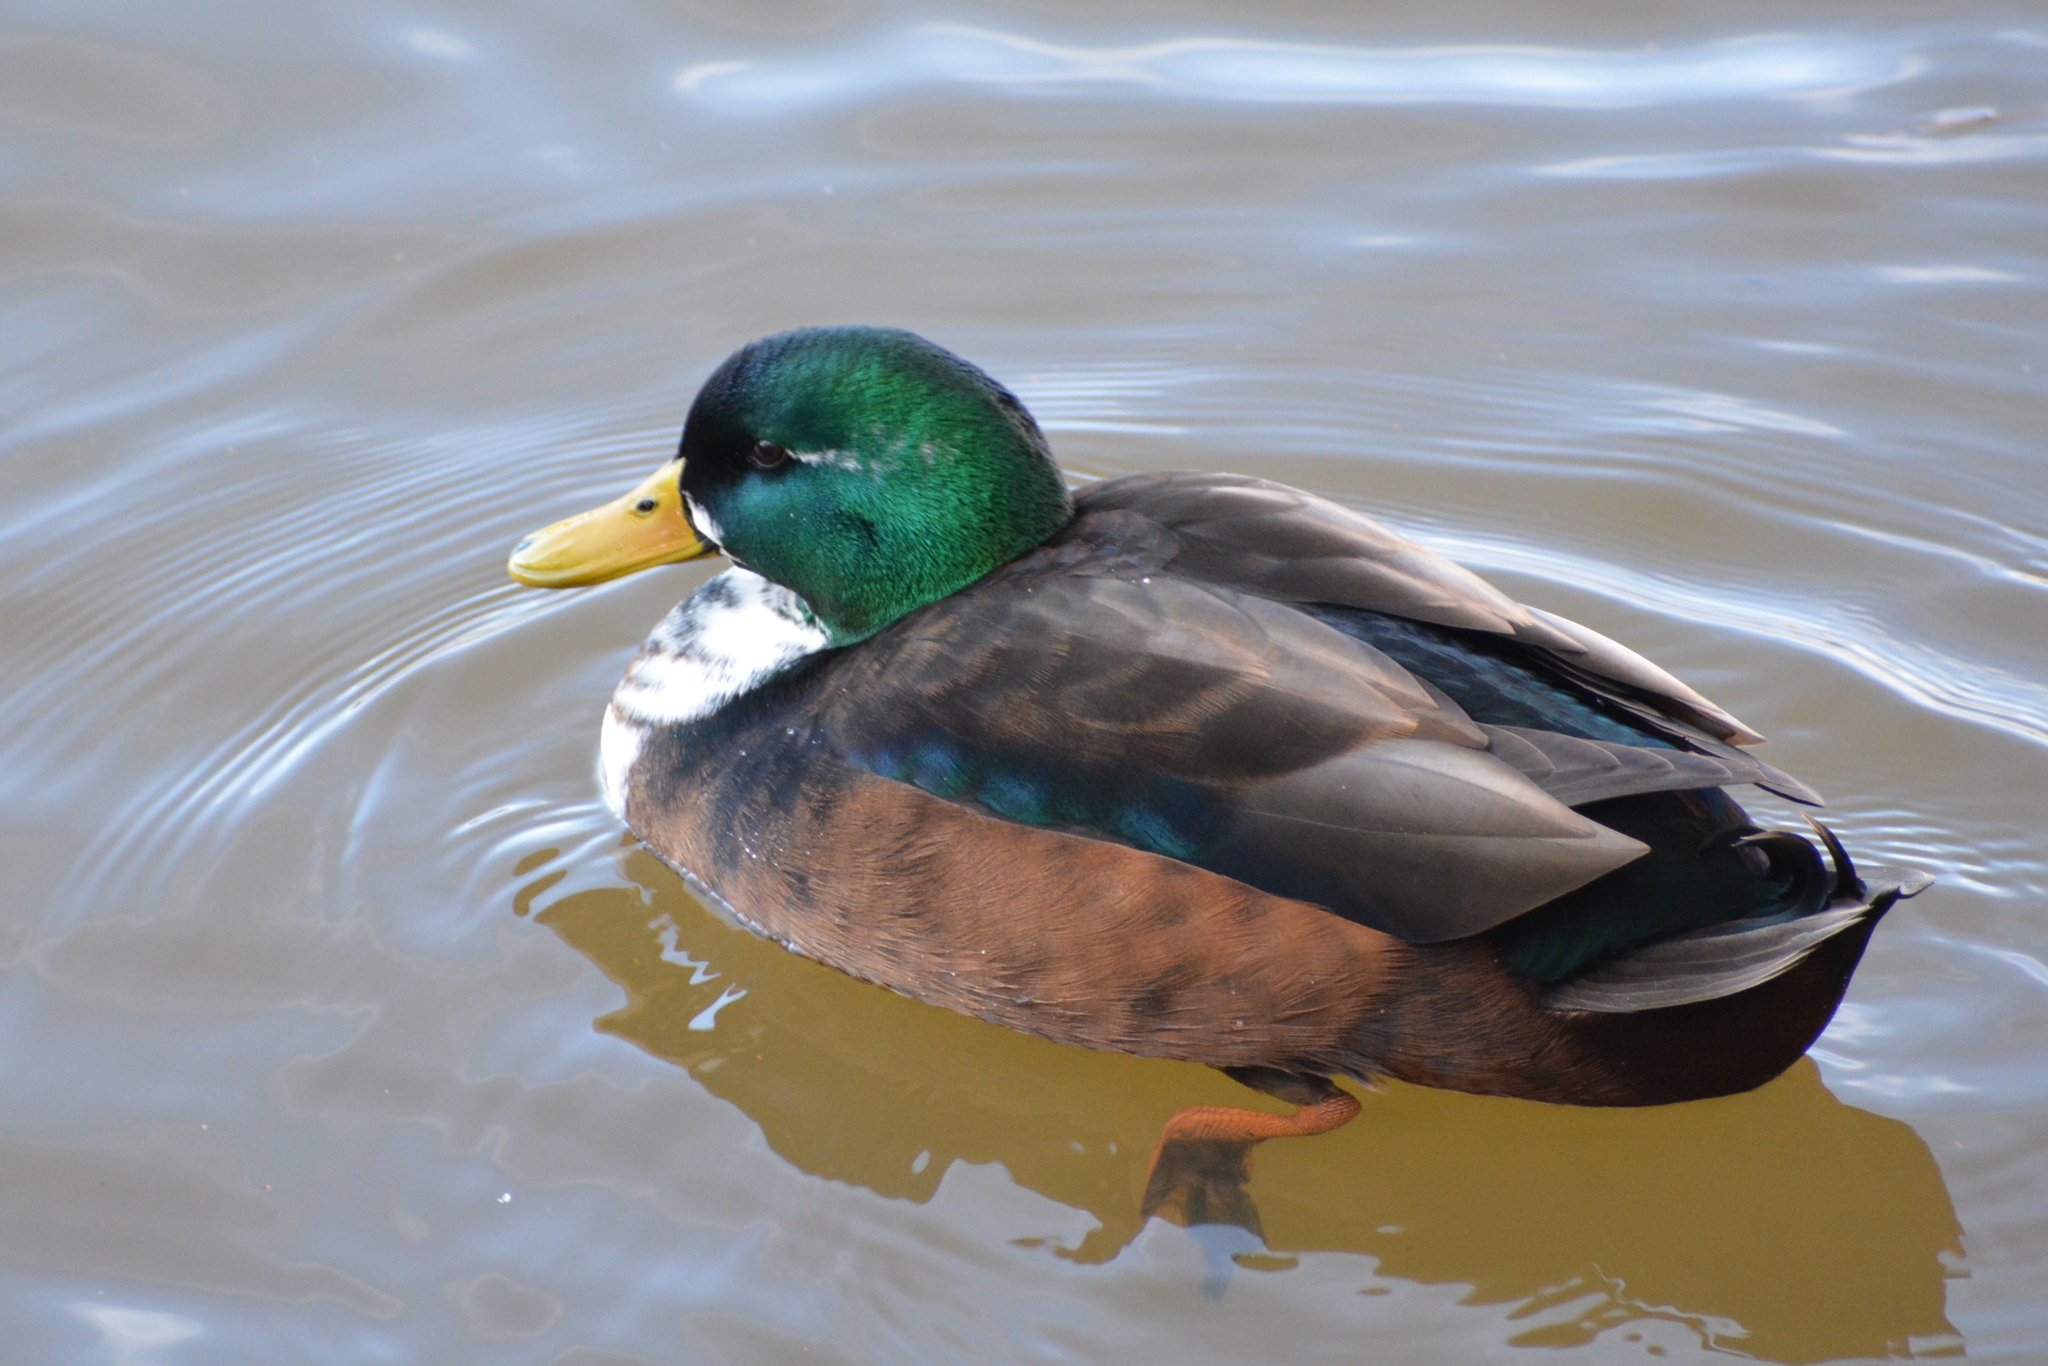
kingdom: Animalia
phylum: Chordata
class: Aves
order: Anseriformes
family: Anatidae
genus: Anas
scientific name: Anas platyrhynchos
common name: Mallard
